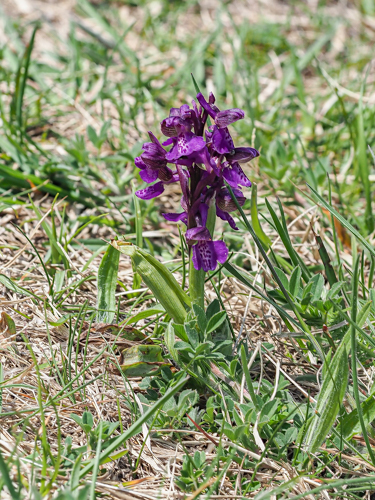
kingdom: Plantae
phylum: Tracheophyta
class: Liliopsida
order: Asparagales
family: Orchidaceae
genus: Anacamptis
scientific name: Anacamptis morio
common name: Green-winged orchid
